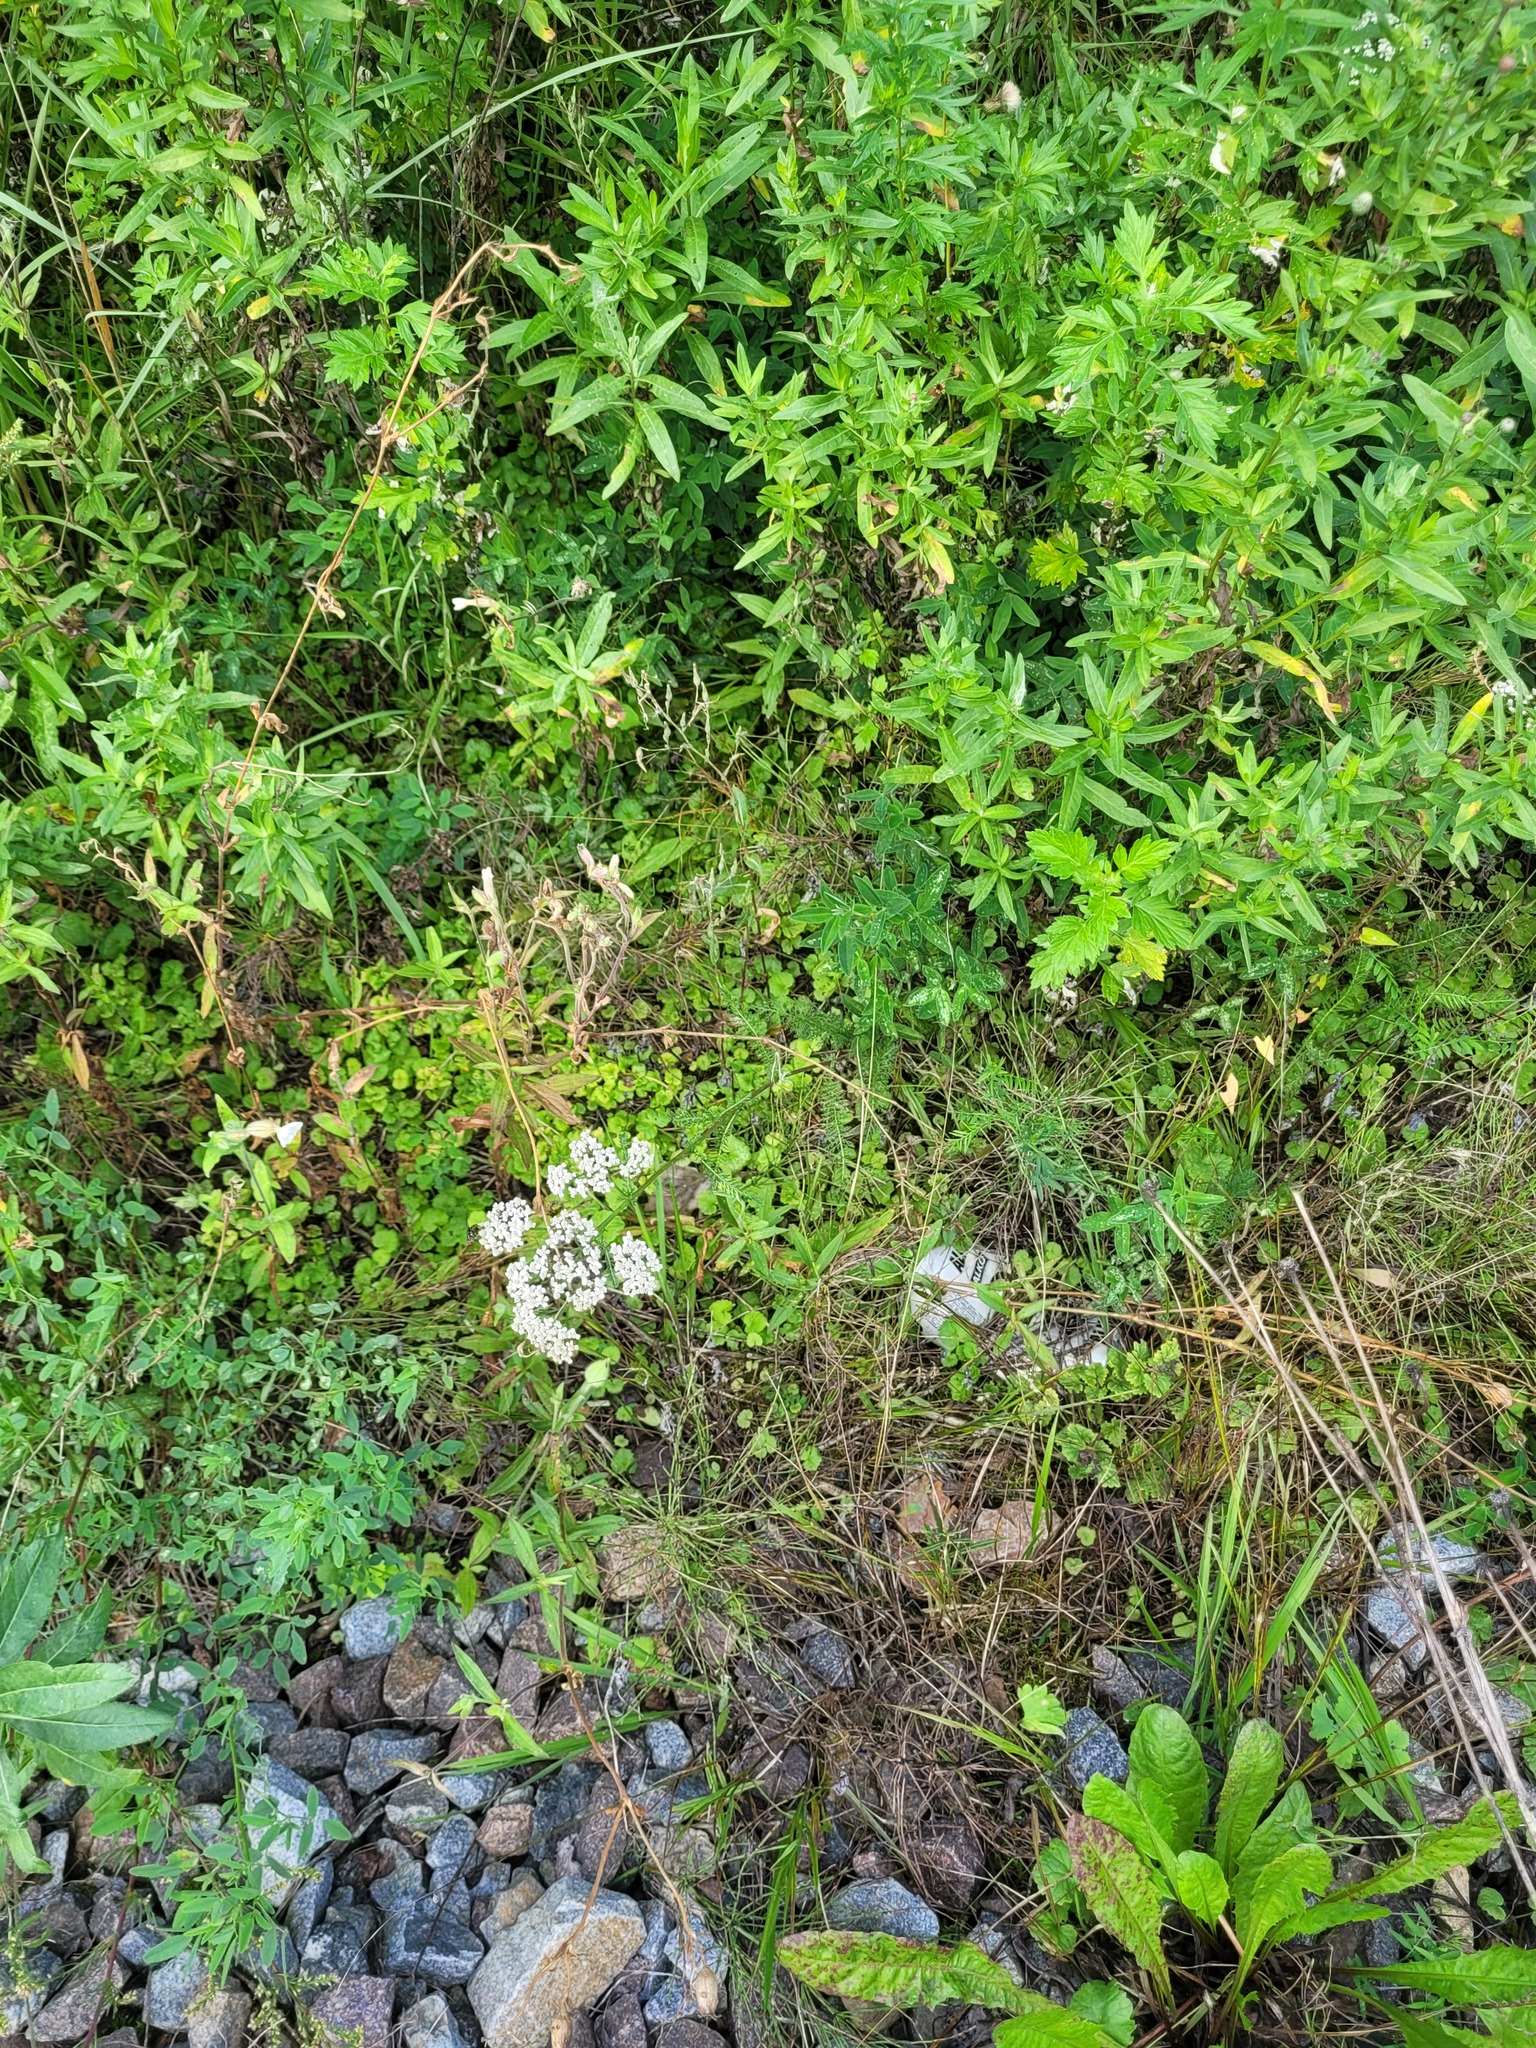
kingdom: Plantae
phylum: Tracheophyta
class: Magnoliopsida
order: Asterales
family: Asteraceae
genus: Achillea
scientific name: Achillea millefolium
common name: Yarrow
